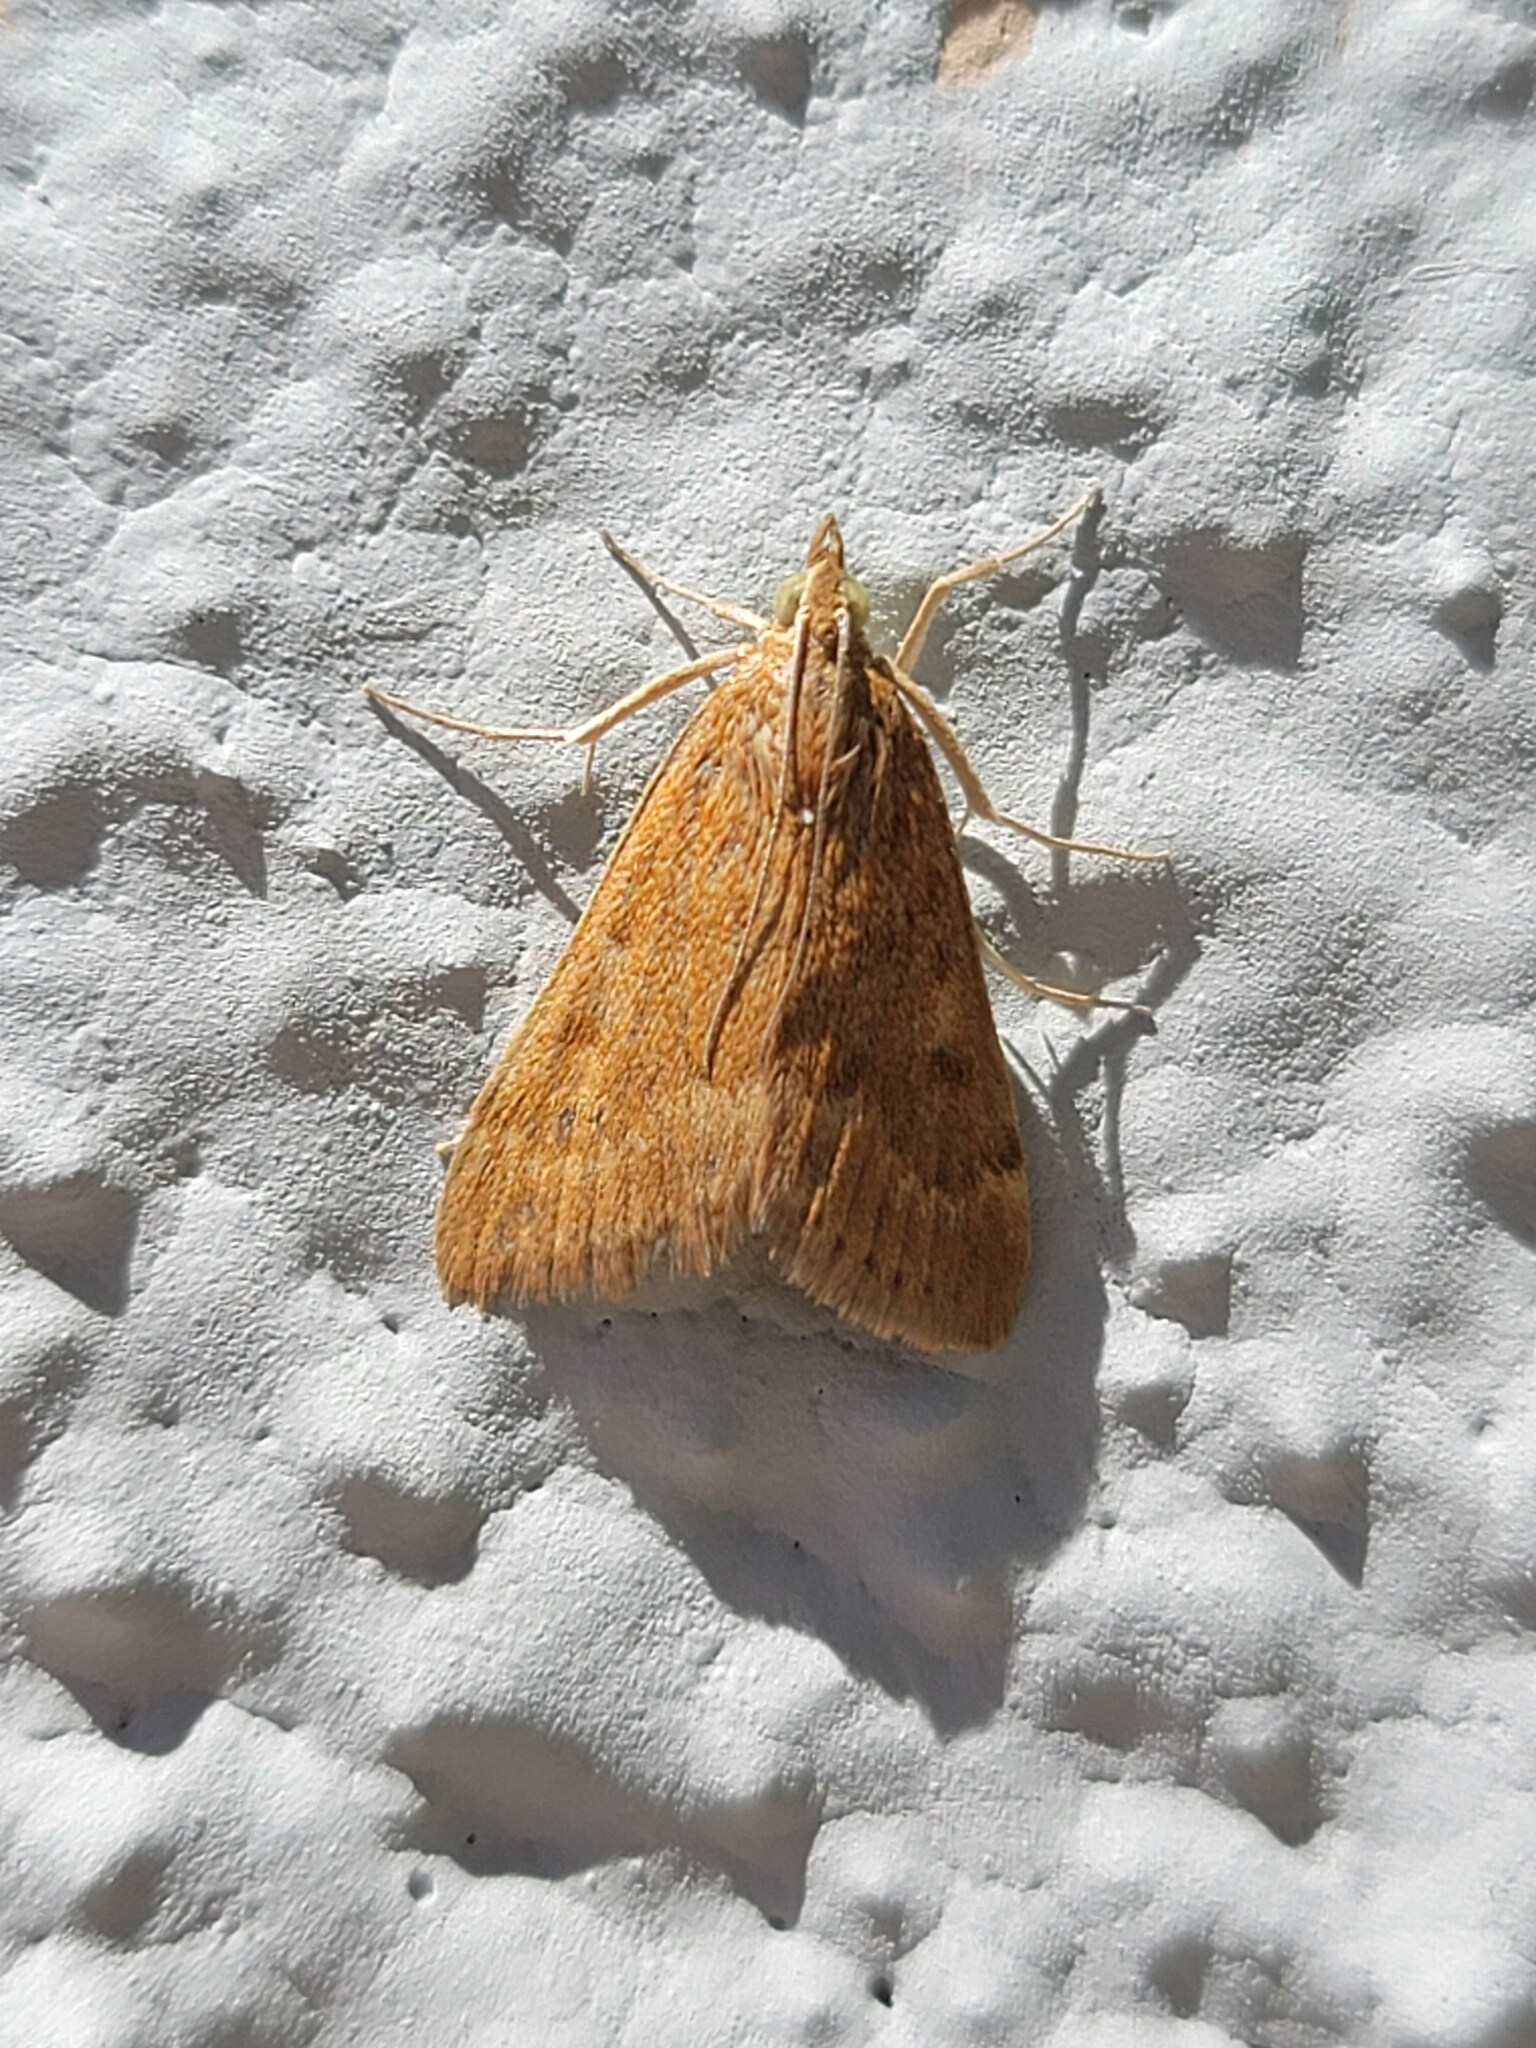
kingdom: Animalia
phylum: Arthropoda
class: Insecta
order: Lepidoptera
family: Crambidae
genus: Achyra
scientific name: Achyra rantalis
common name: Garden webworm
